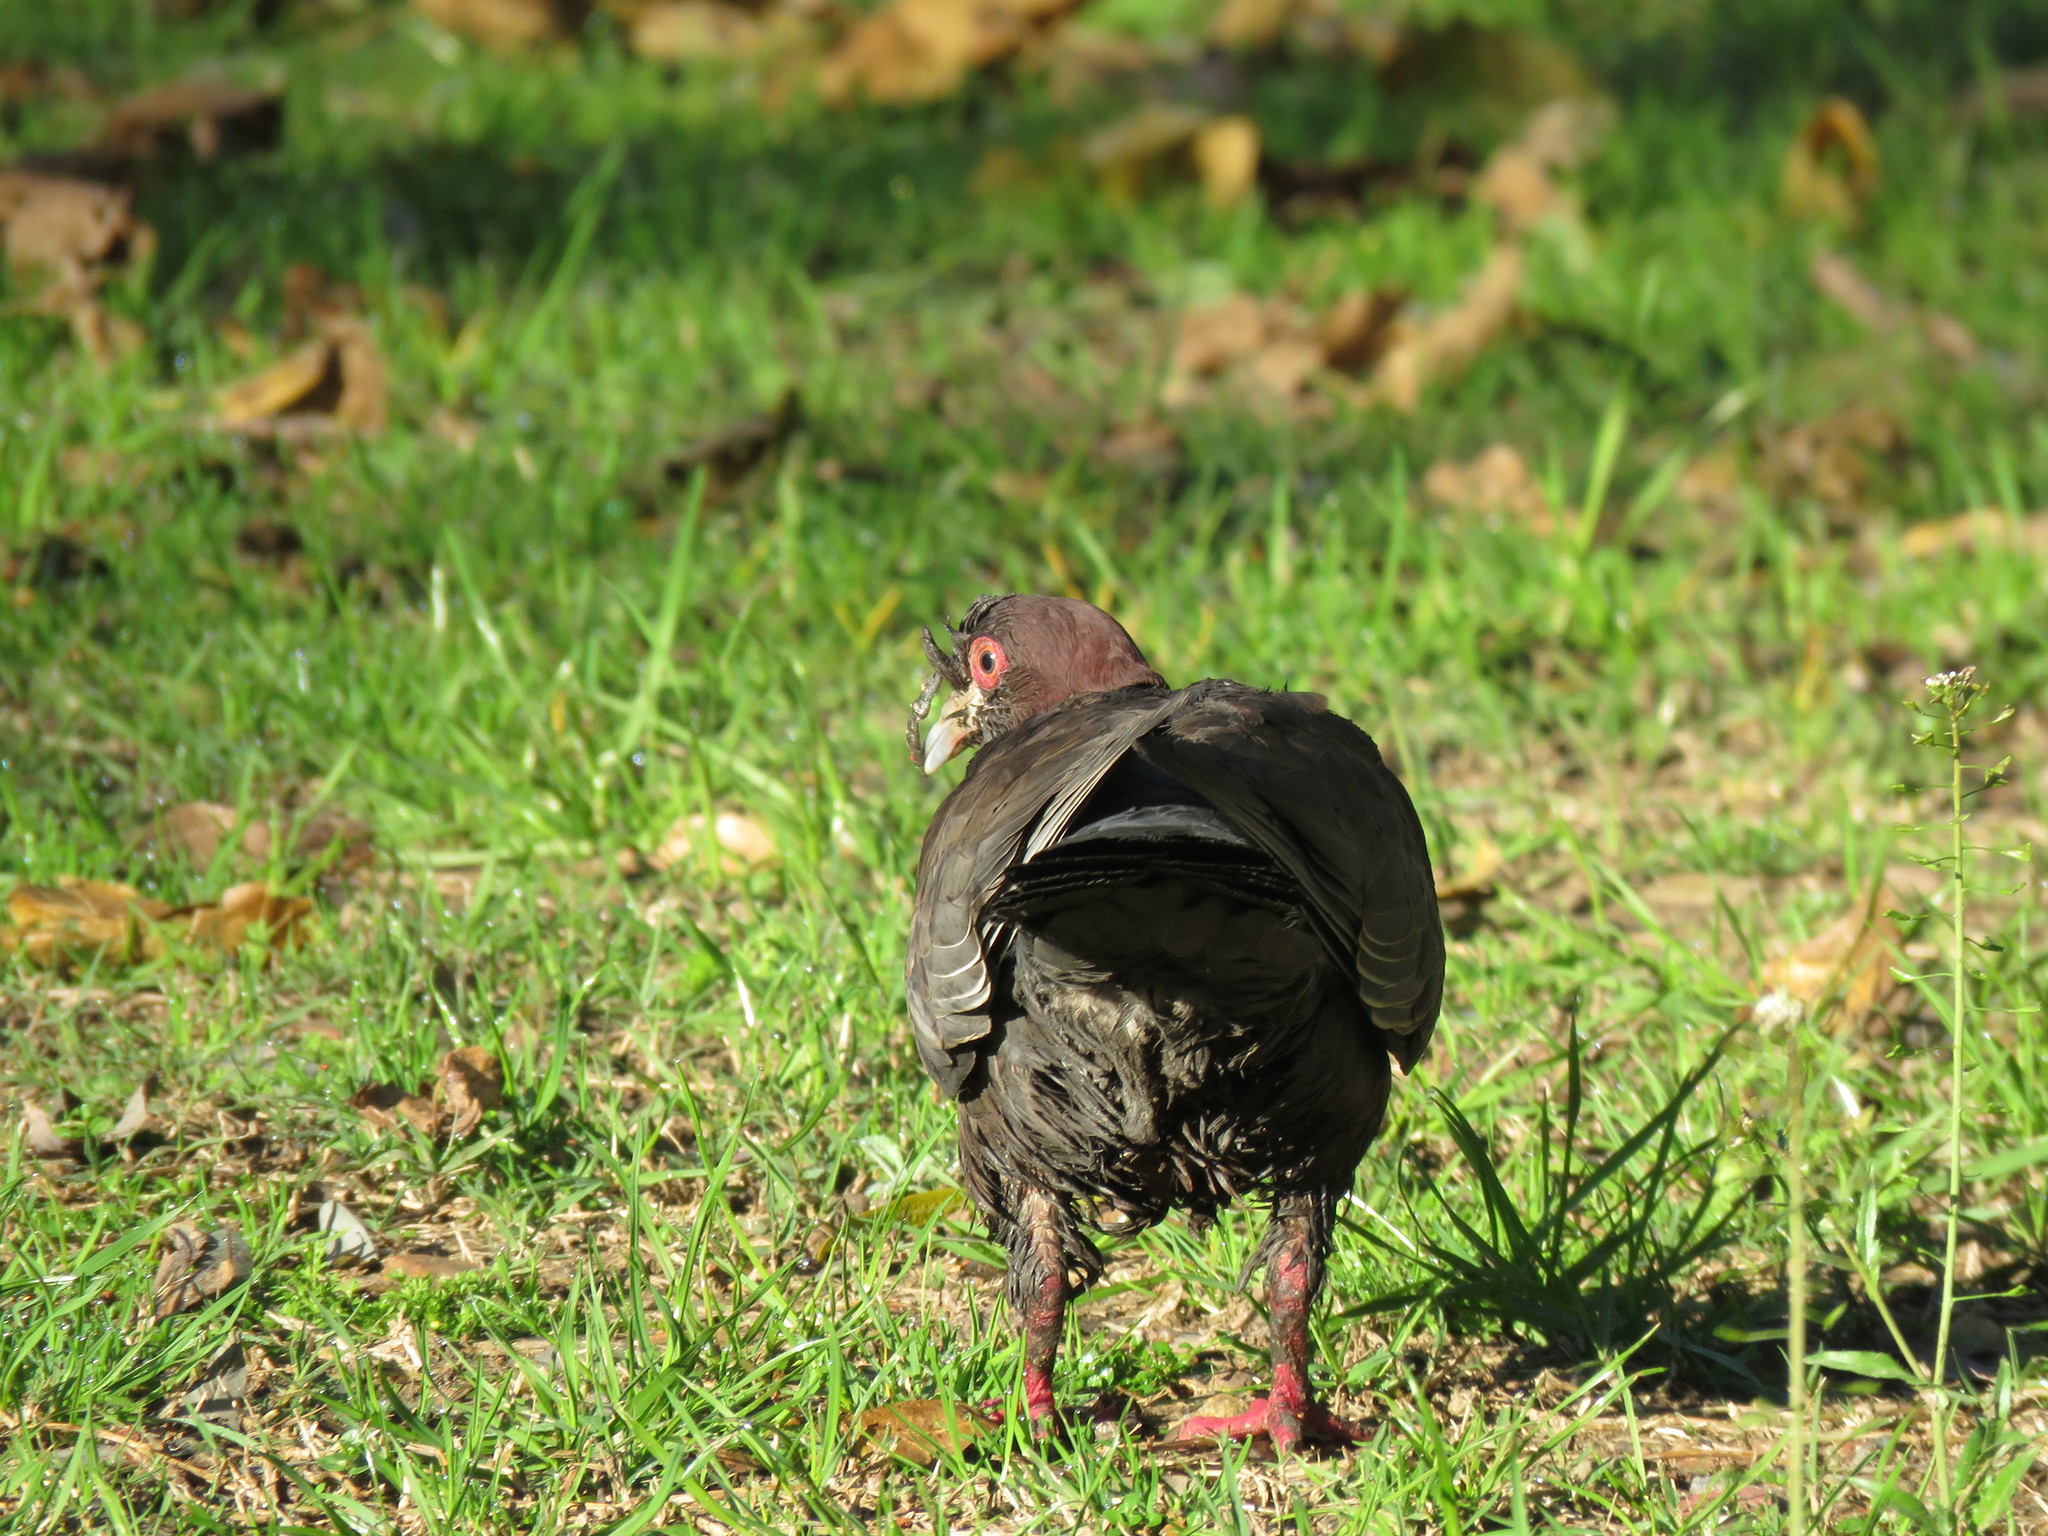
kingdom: Animalia
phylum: Chordata
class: Aves
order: Columbiformes
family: Columbidae
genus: Patagioenas
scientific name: Patagioenas picazuro
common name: Picazuro pigeon
